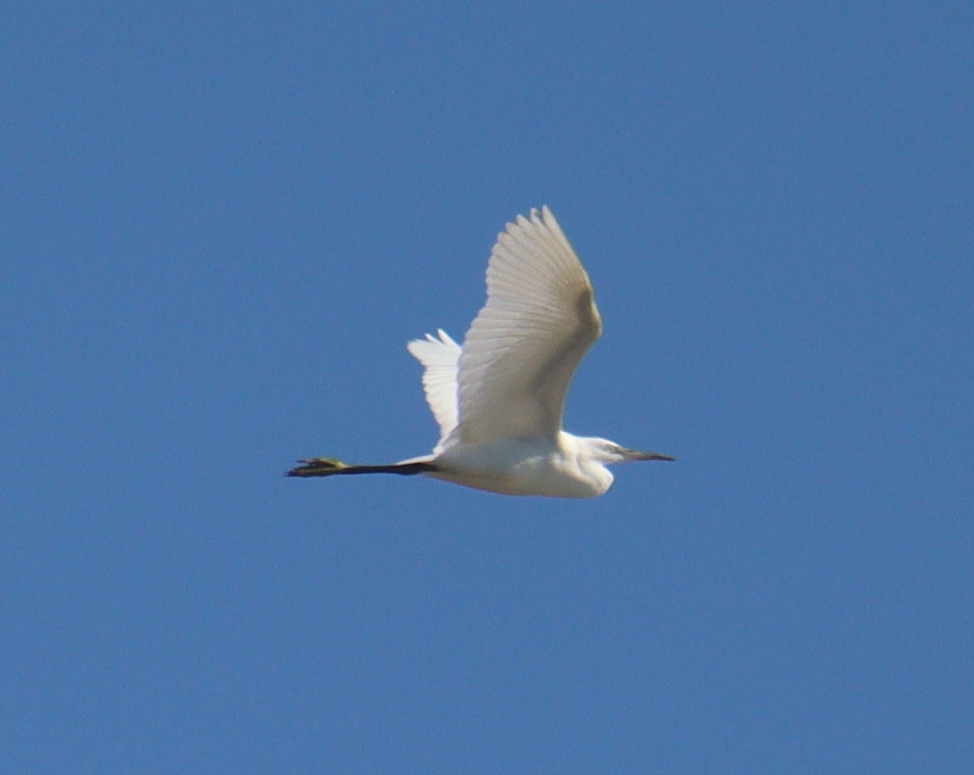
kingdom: Animalia
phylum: Chordata
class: Aves
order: Pelecaniformes
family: Ardeidae
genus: Egretta
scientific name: Egretta garzetta
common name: Little egret
